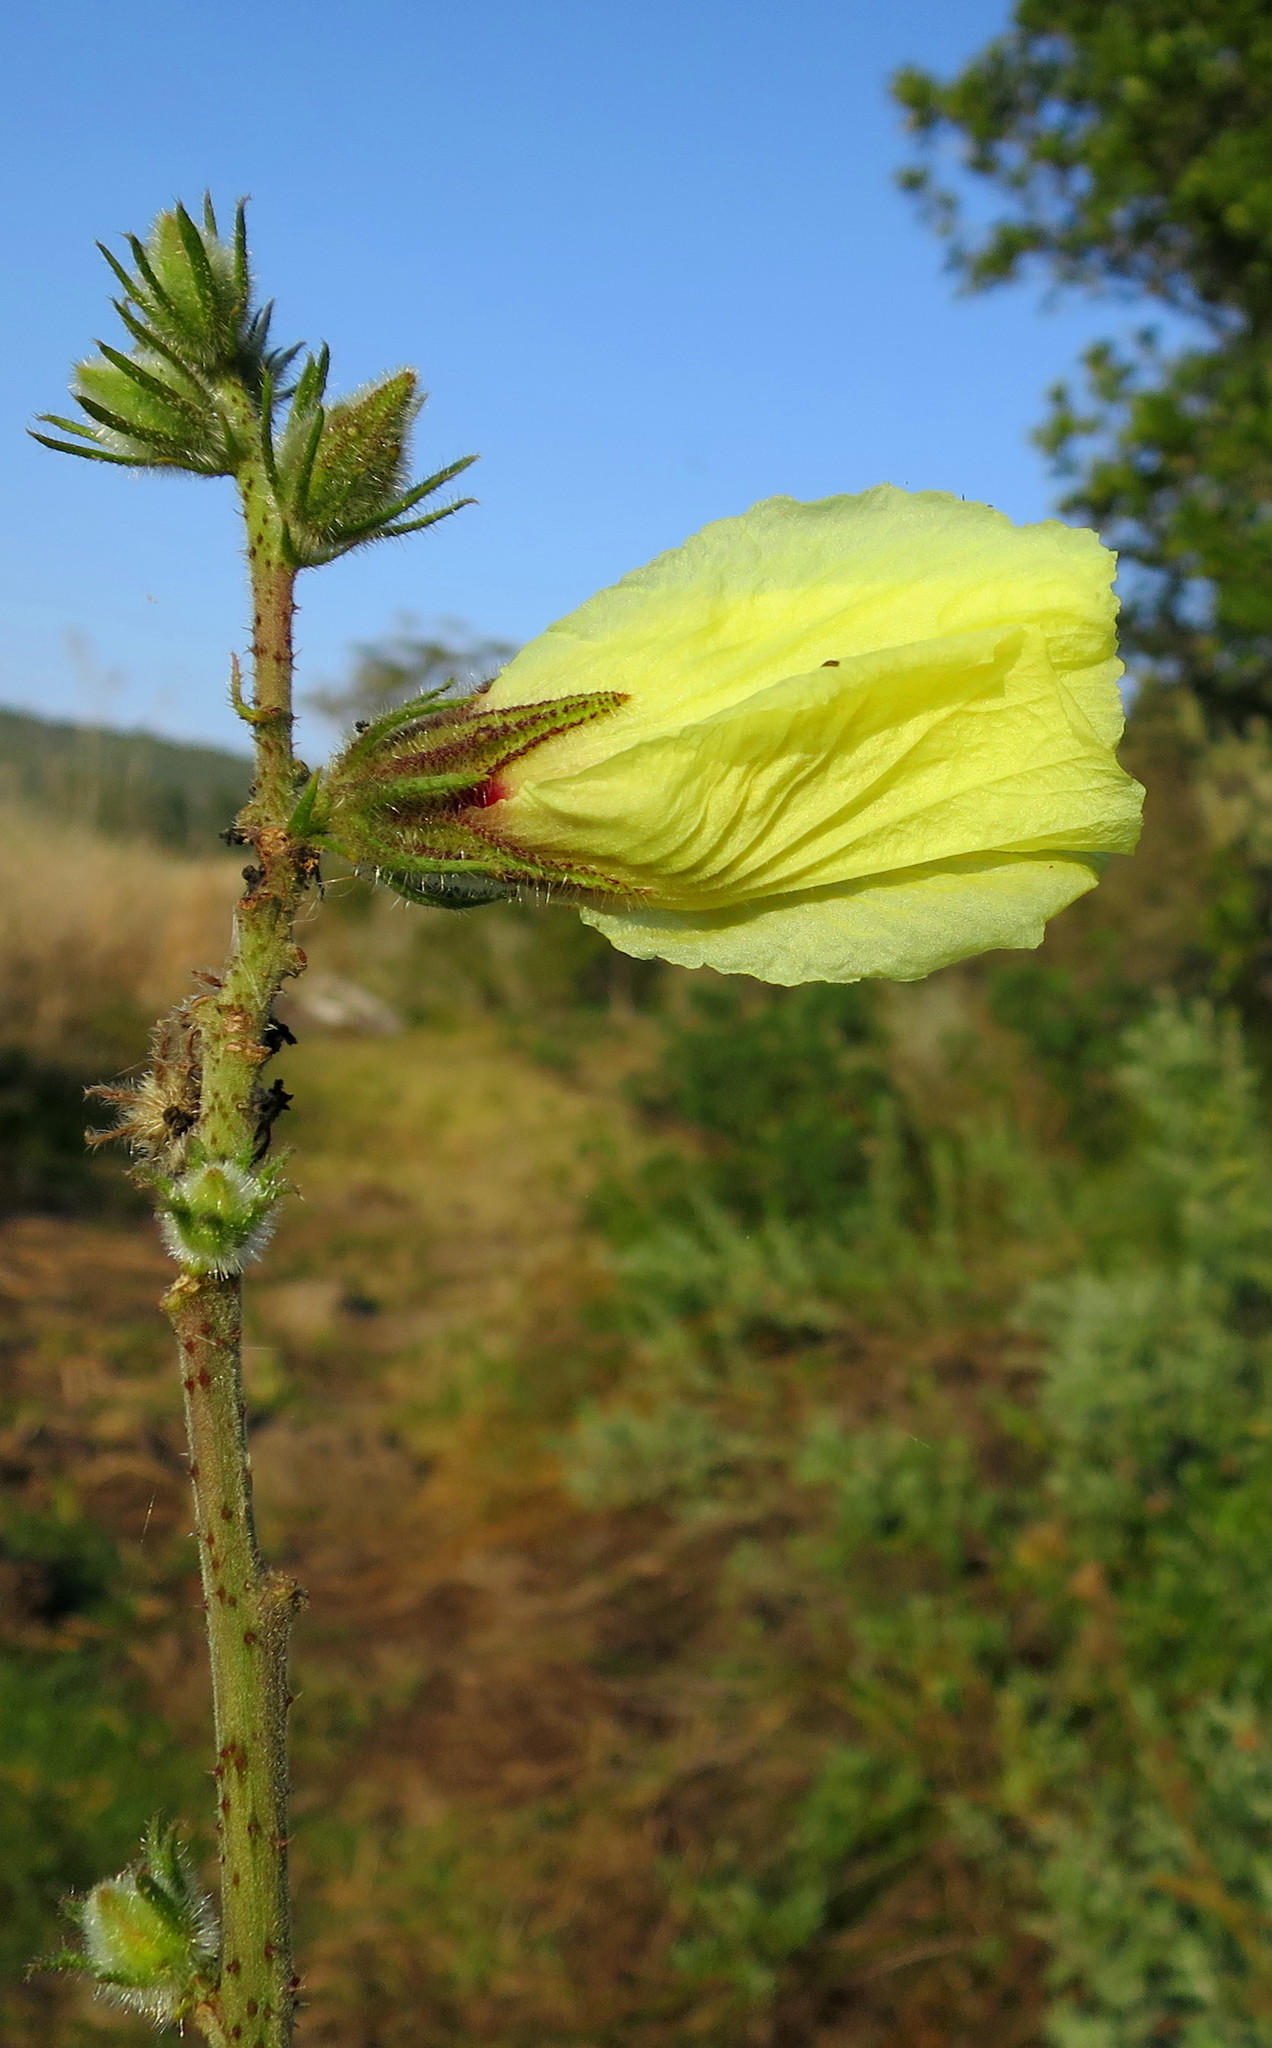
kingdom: Plantae
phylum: Tracheophyta
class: Magnoliopsida
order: Malvales
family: Malvaceae
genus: Hibiscus
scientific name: Hibiscus diversifolius
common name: Cape hibiscus
